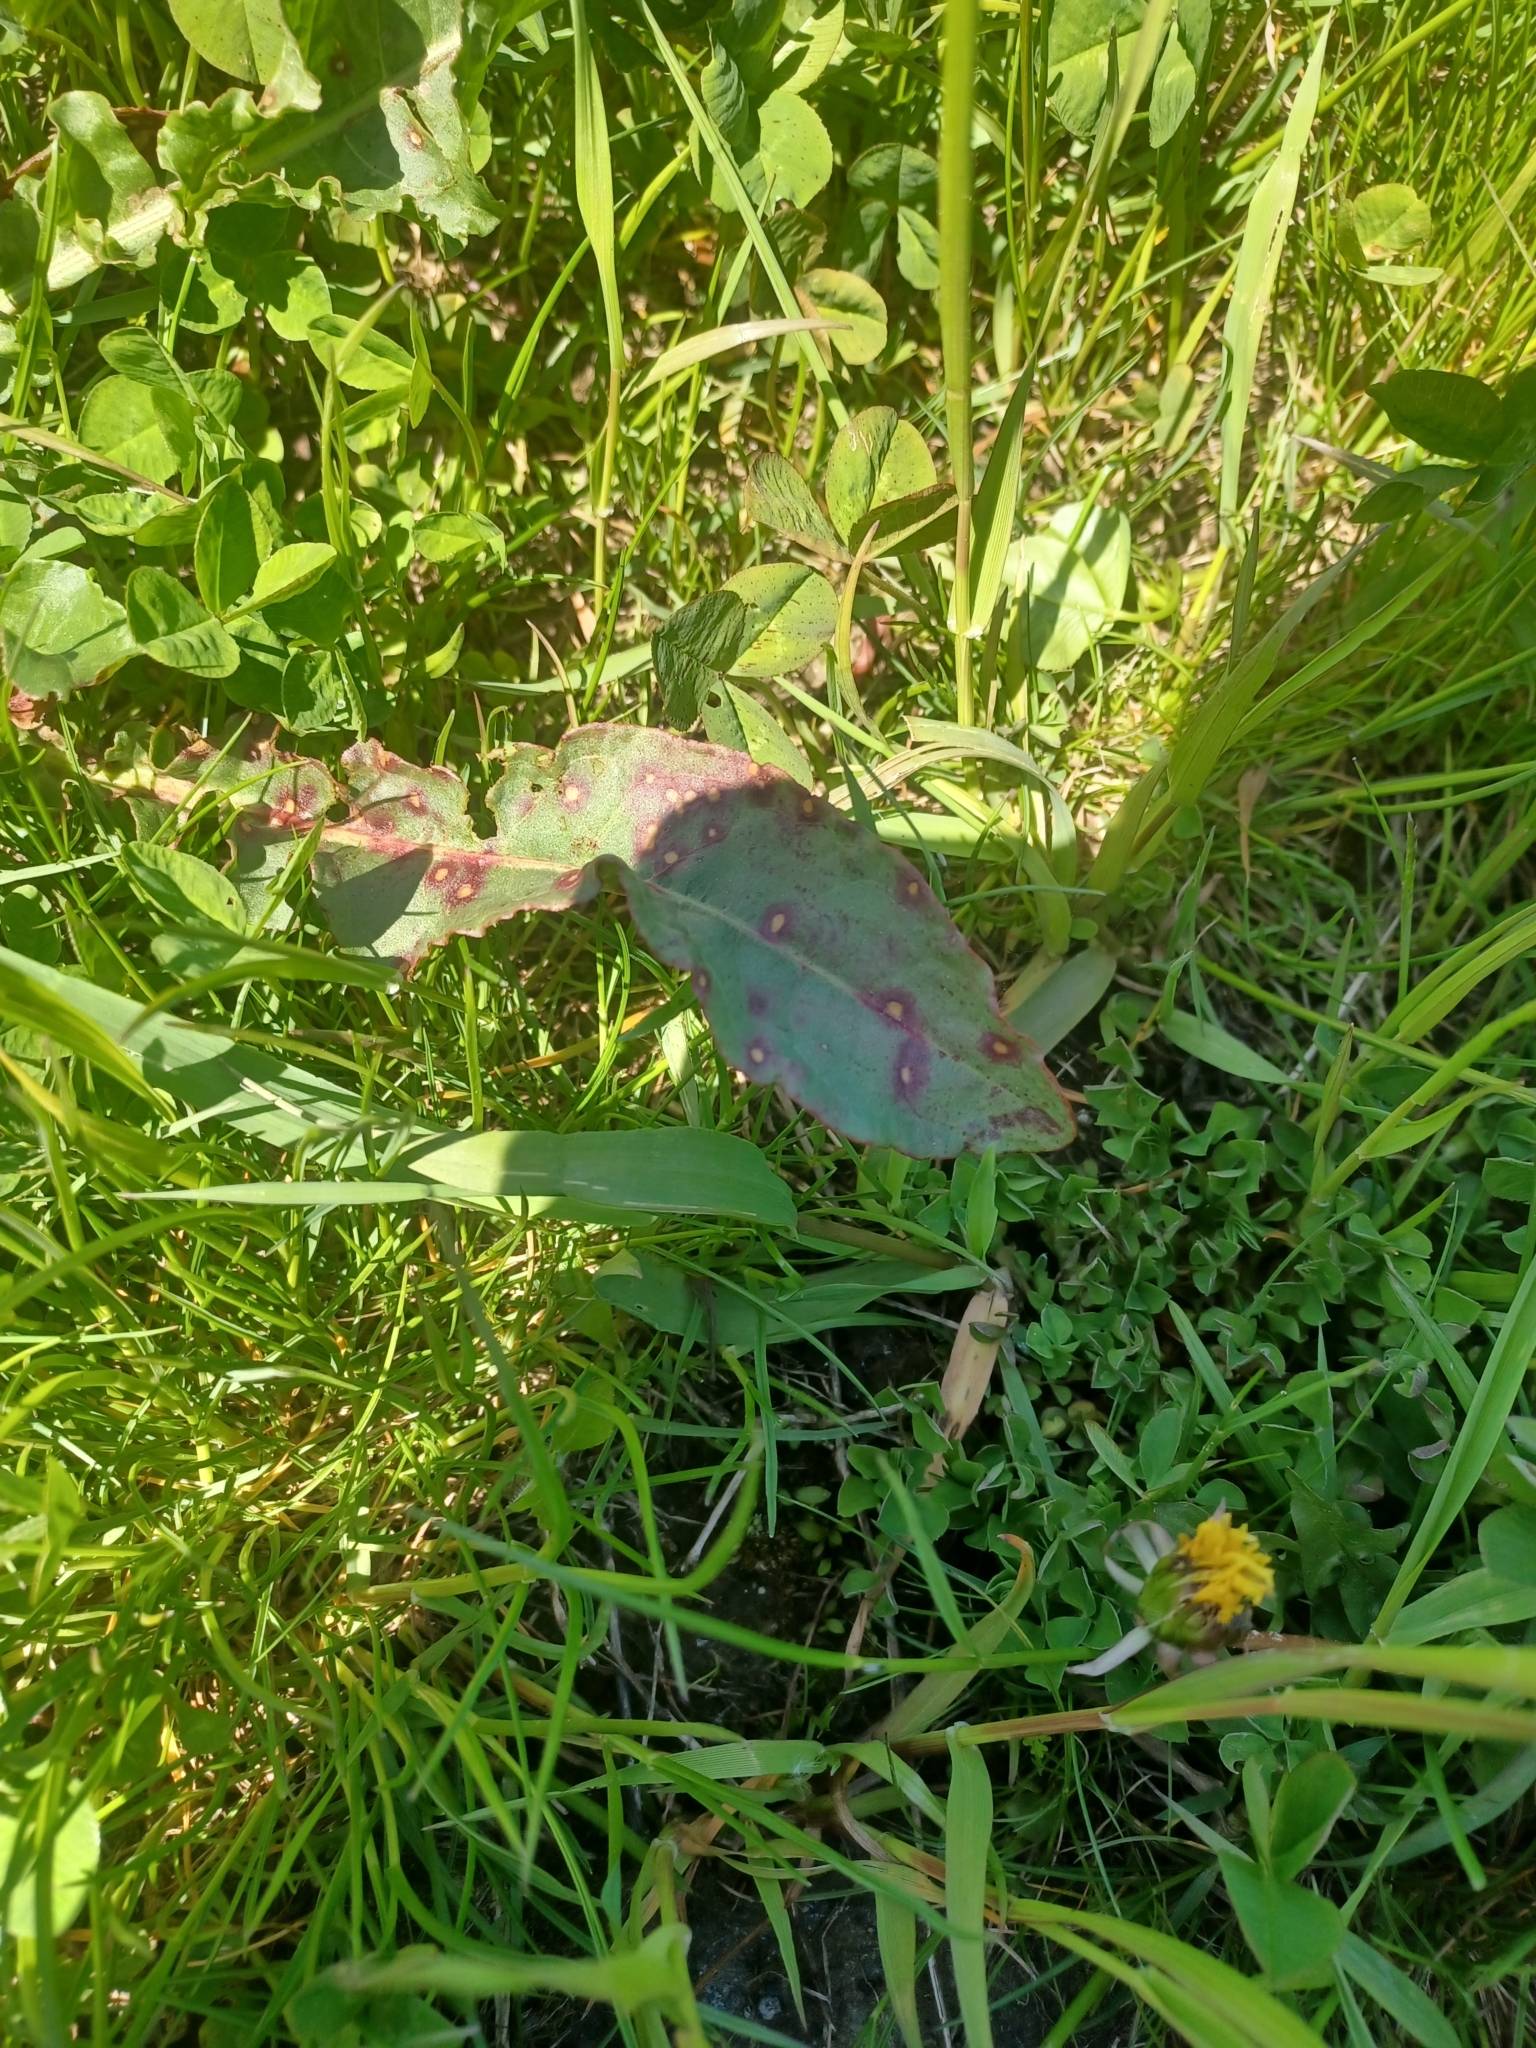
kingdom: Fungi
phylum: Ascomycota
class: Dothideomycetes
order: Mycosphaerellales
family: Mycosphaerellaceae
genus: Ramularia
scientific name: Ramularia rubella
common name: Red dock spot
